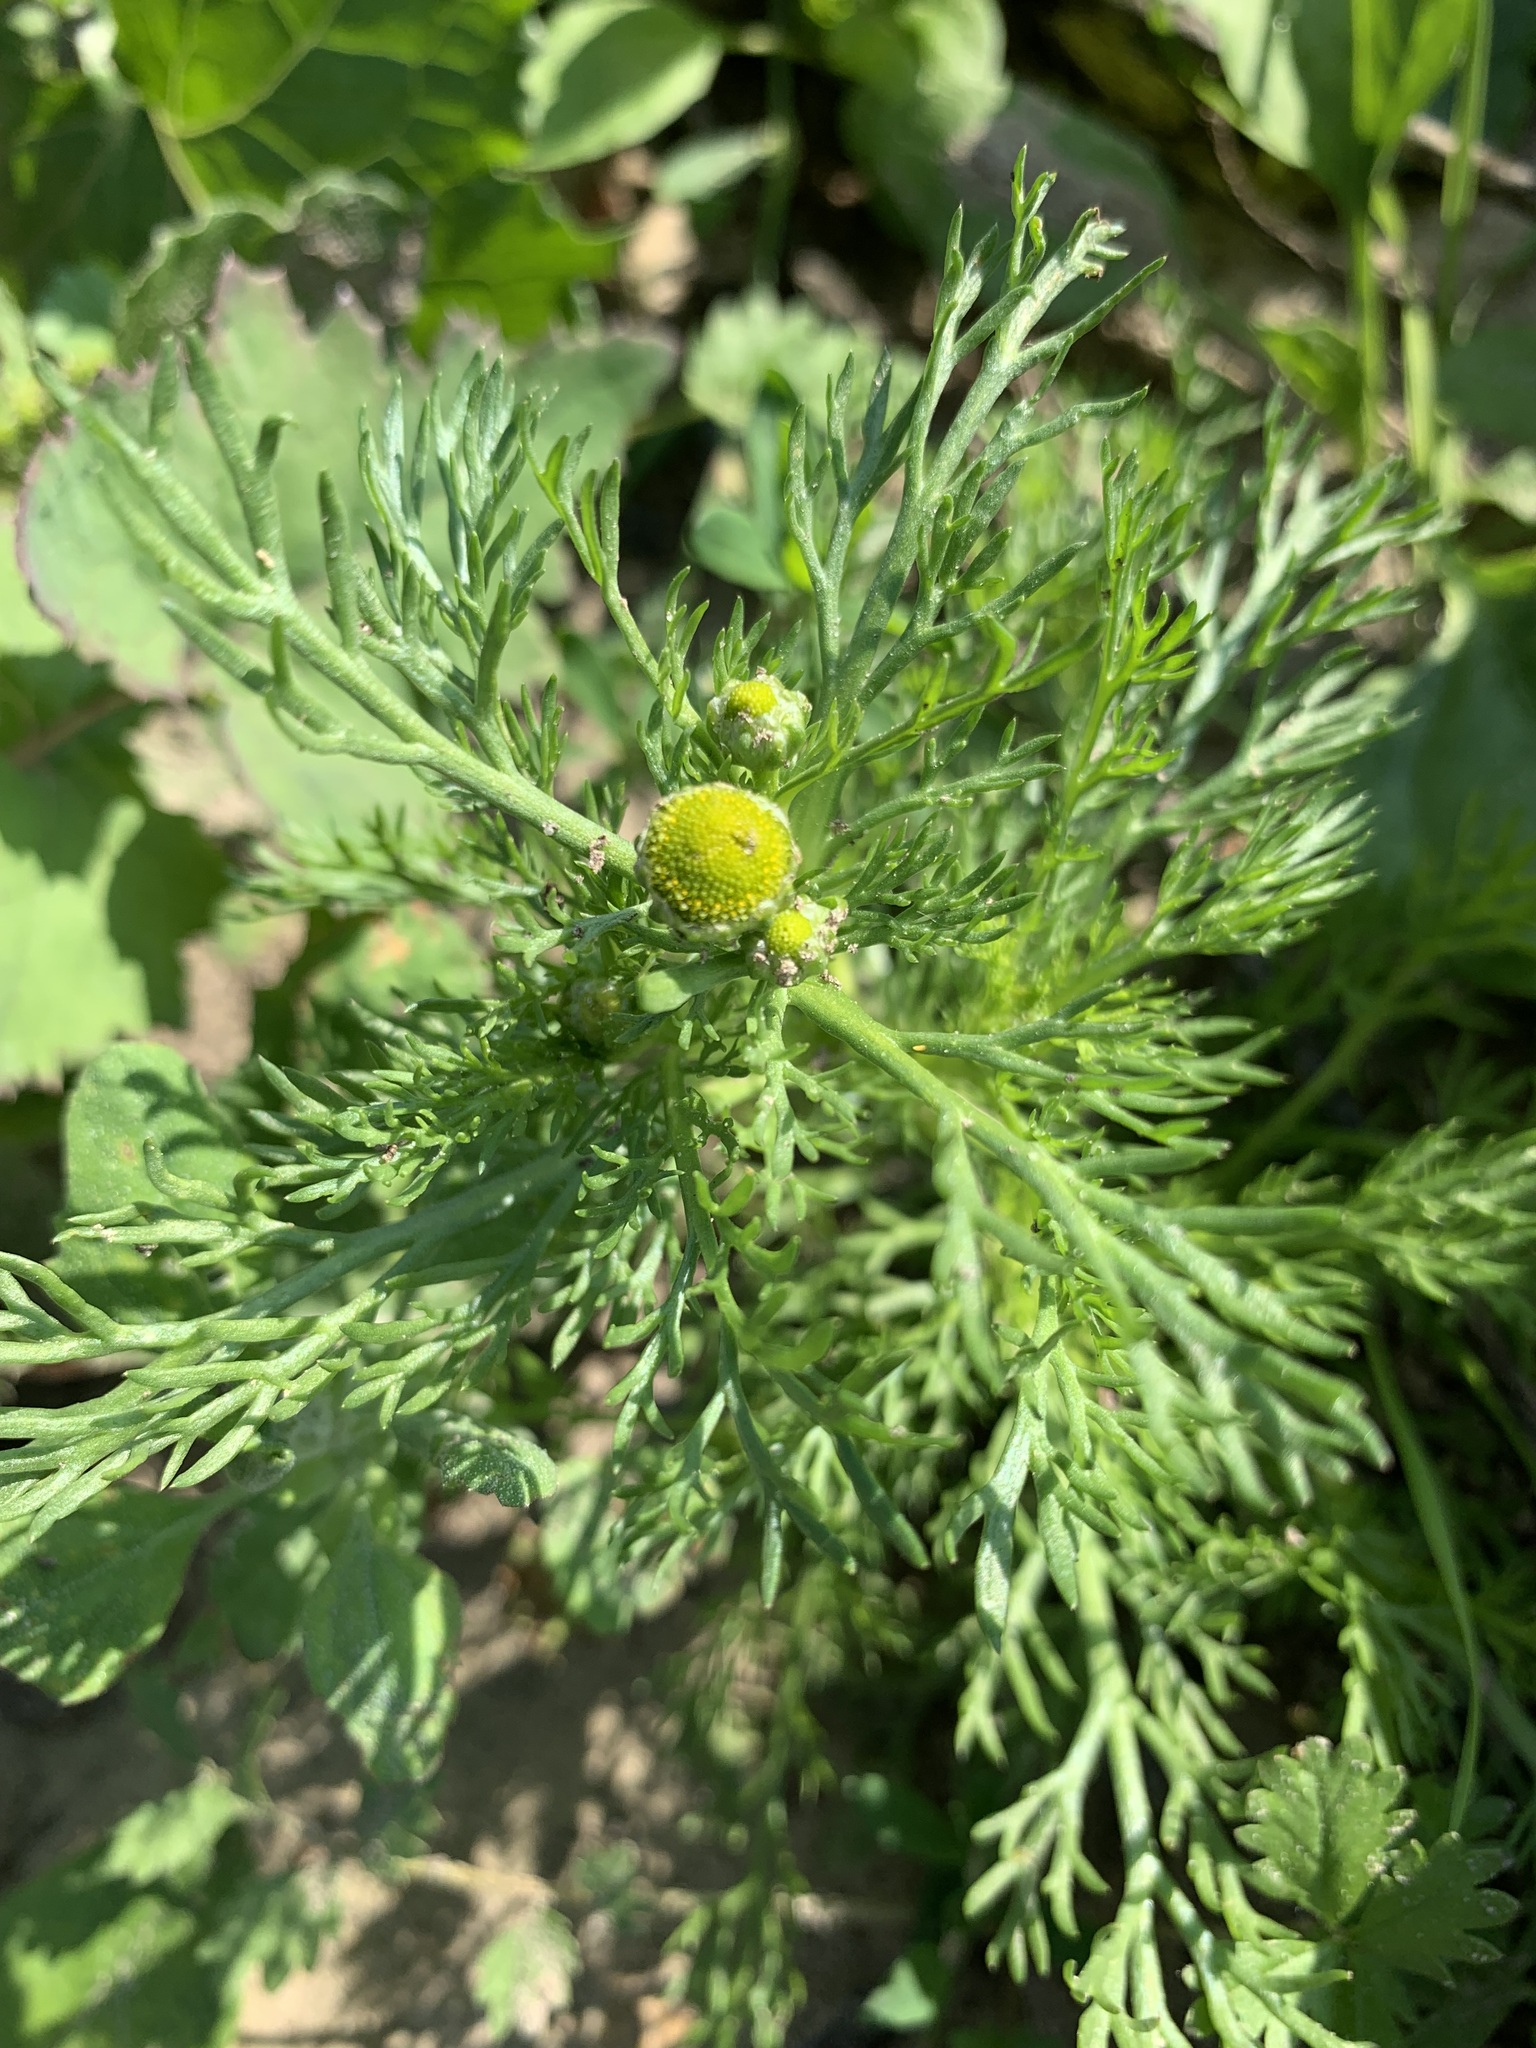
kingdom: Plantae
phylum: Tracheophyta
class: Magnoliopsida
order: Asterales
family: Asteraceae
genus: Matricaria
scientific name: Matricaria discoidea
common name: Disc mayweed
